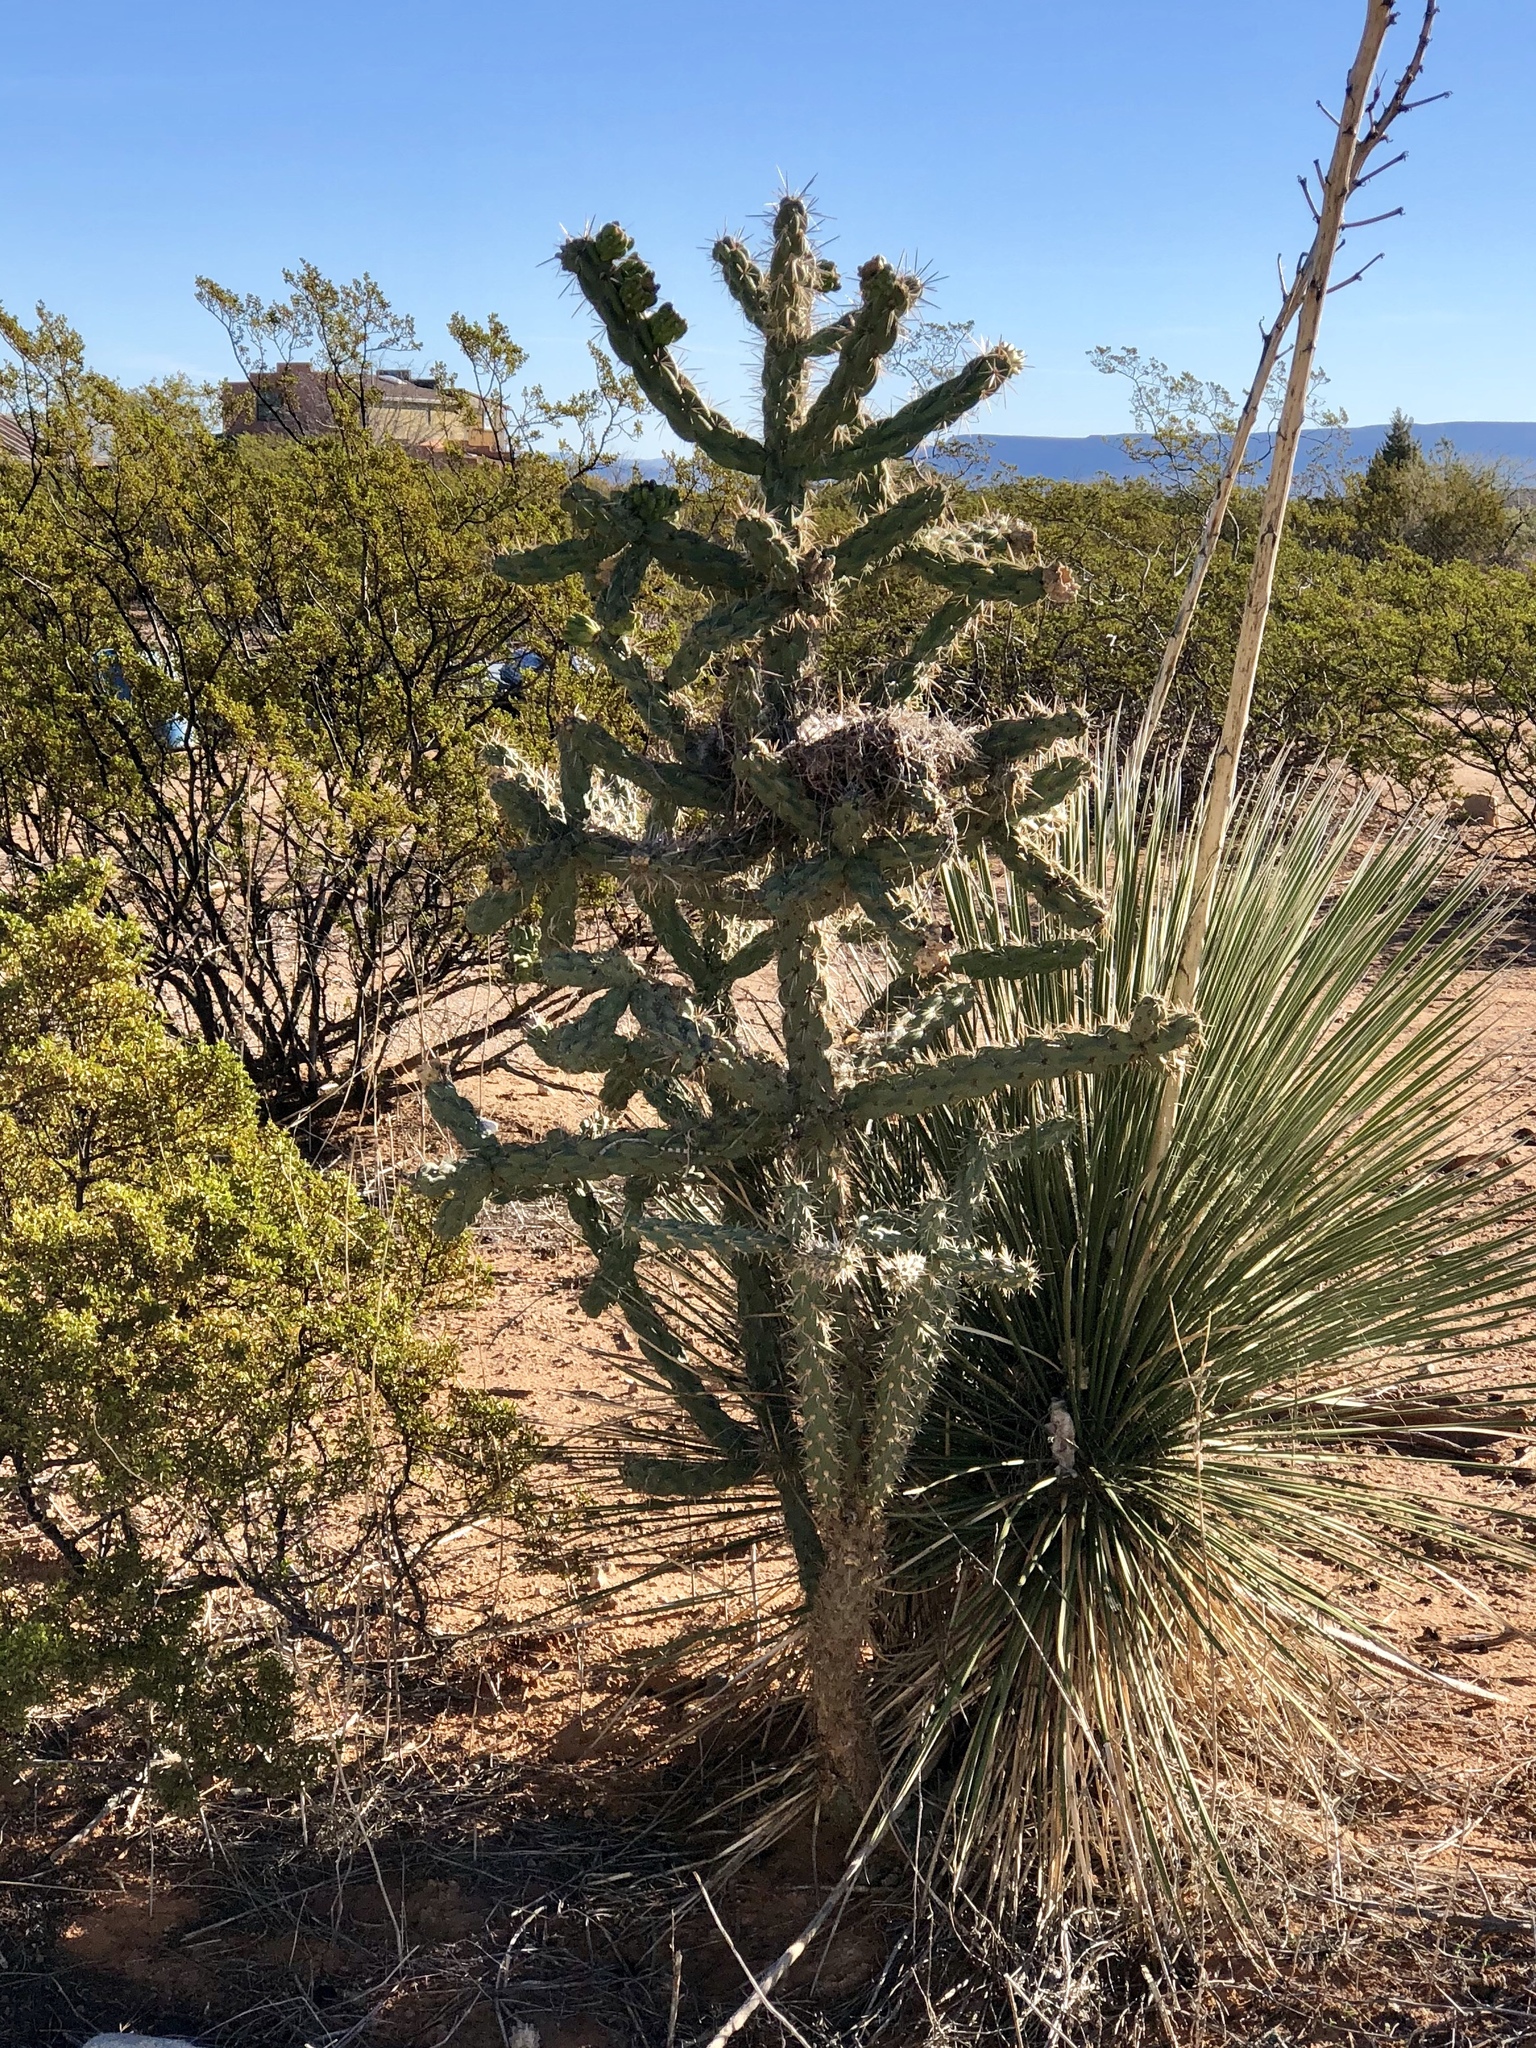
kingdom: Plantae
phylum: Tracheophyta
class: Magnoliopsida
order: Caryophyllales
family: Cactaceae
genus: Cylindropuntia
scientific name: Cylindropuntia imbricata
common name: Candelabrum cactus
